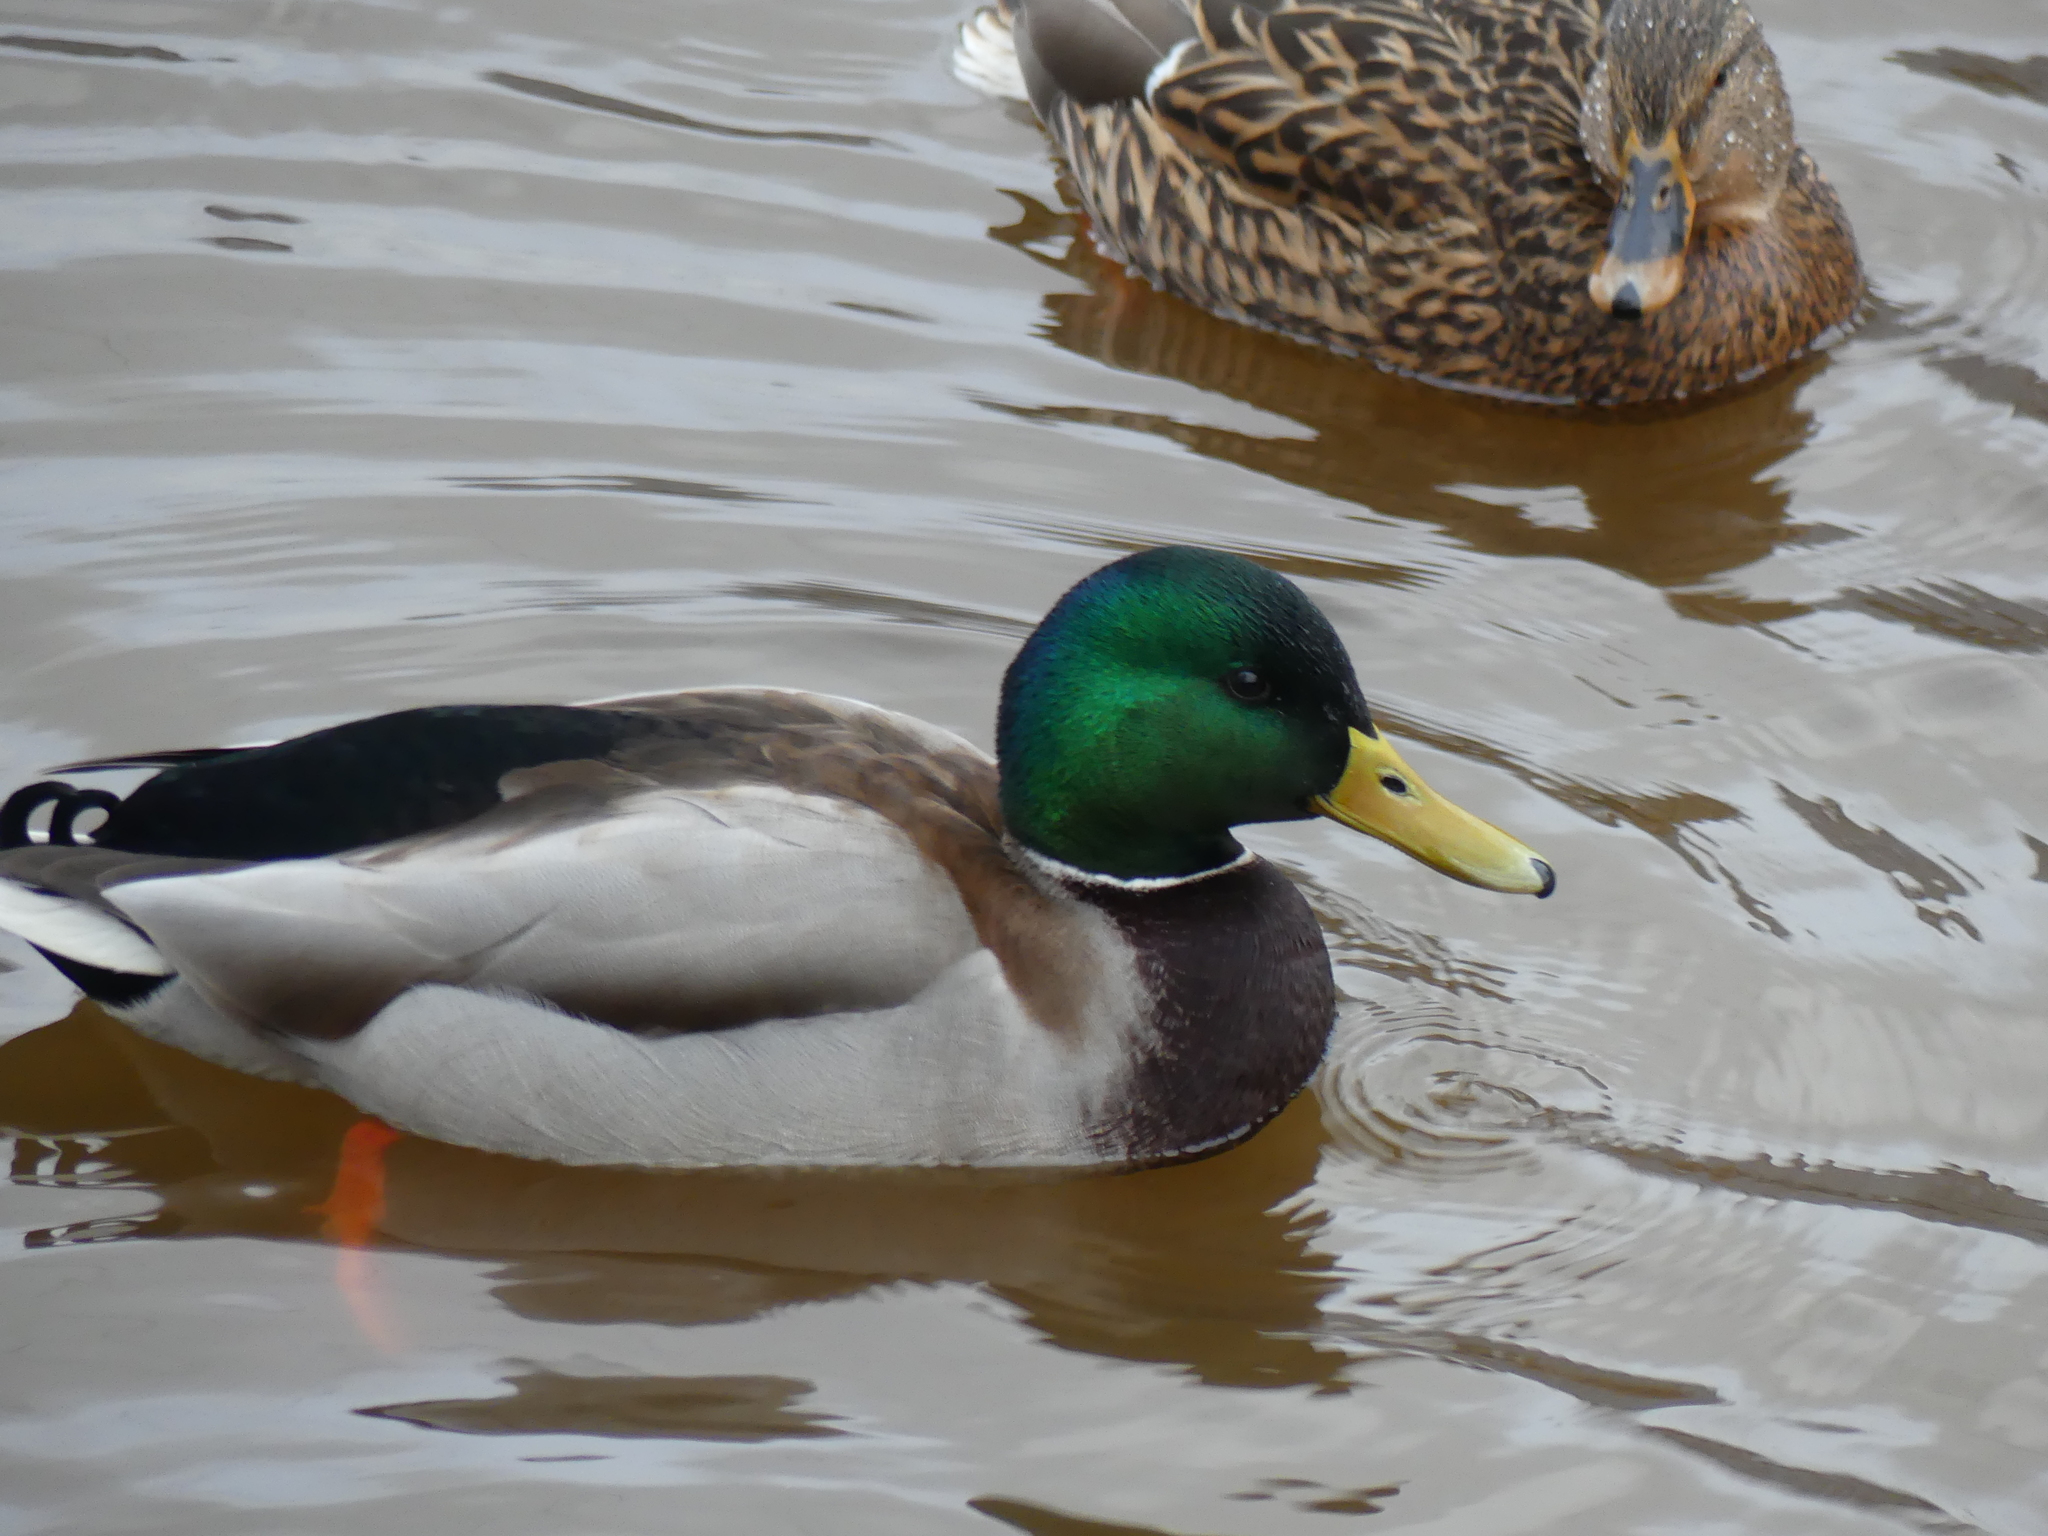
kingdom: Animalia
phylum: Chordata
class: Aves
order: Anseriformes
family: Anatidae
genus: Anas
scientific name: Anas platyrhynchos
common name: Mallard
